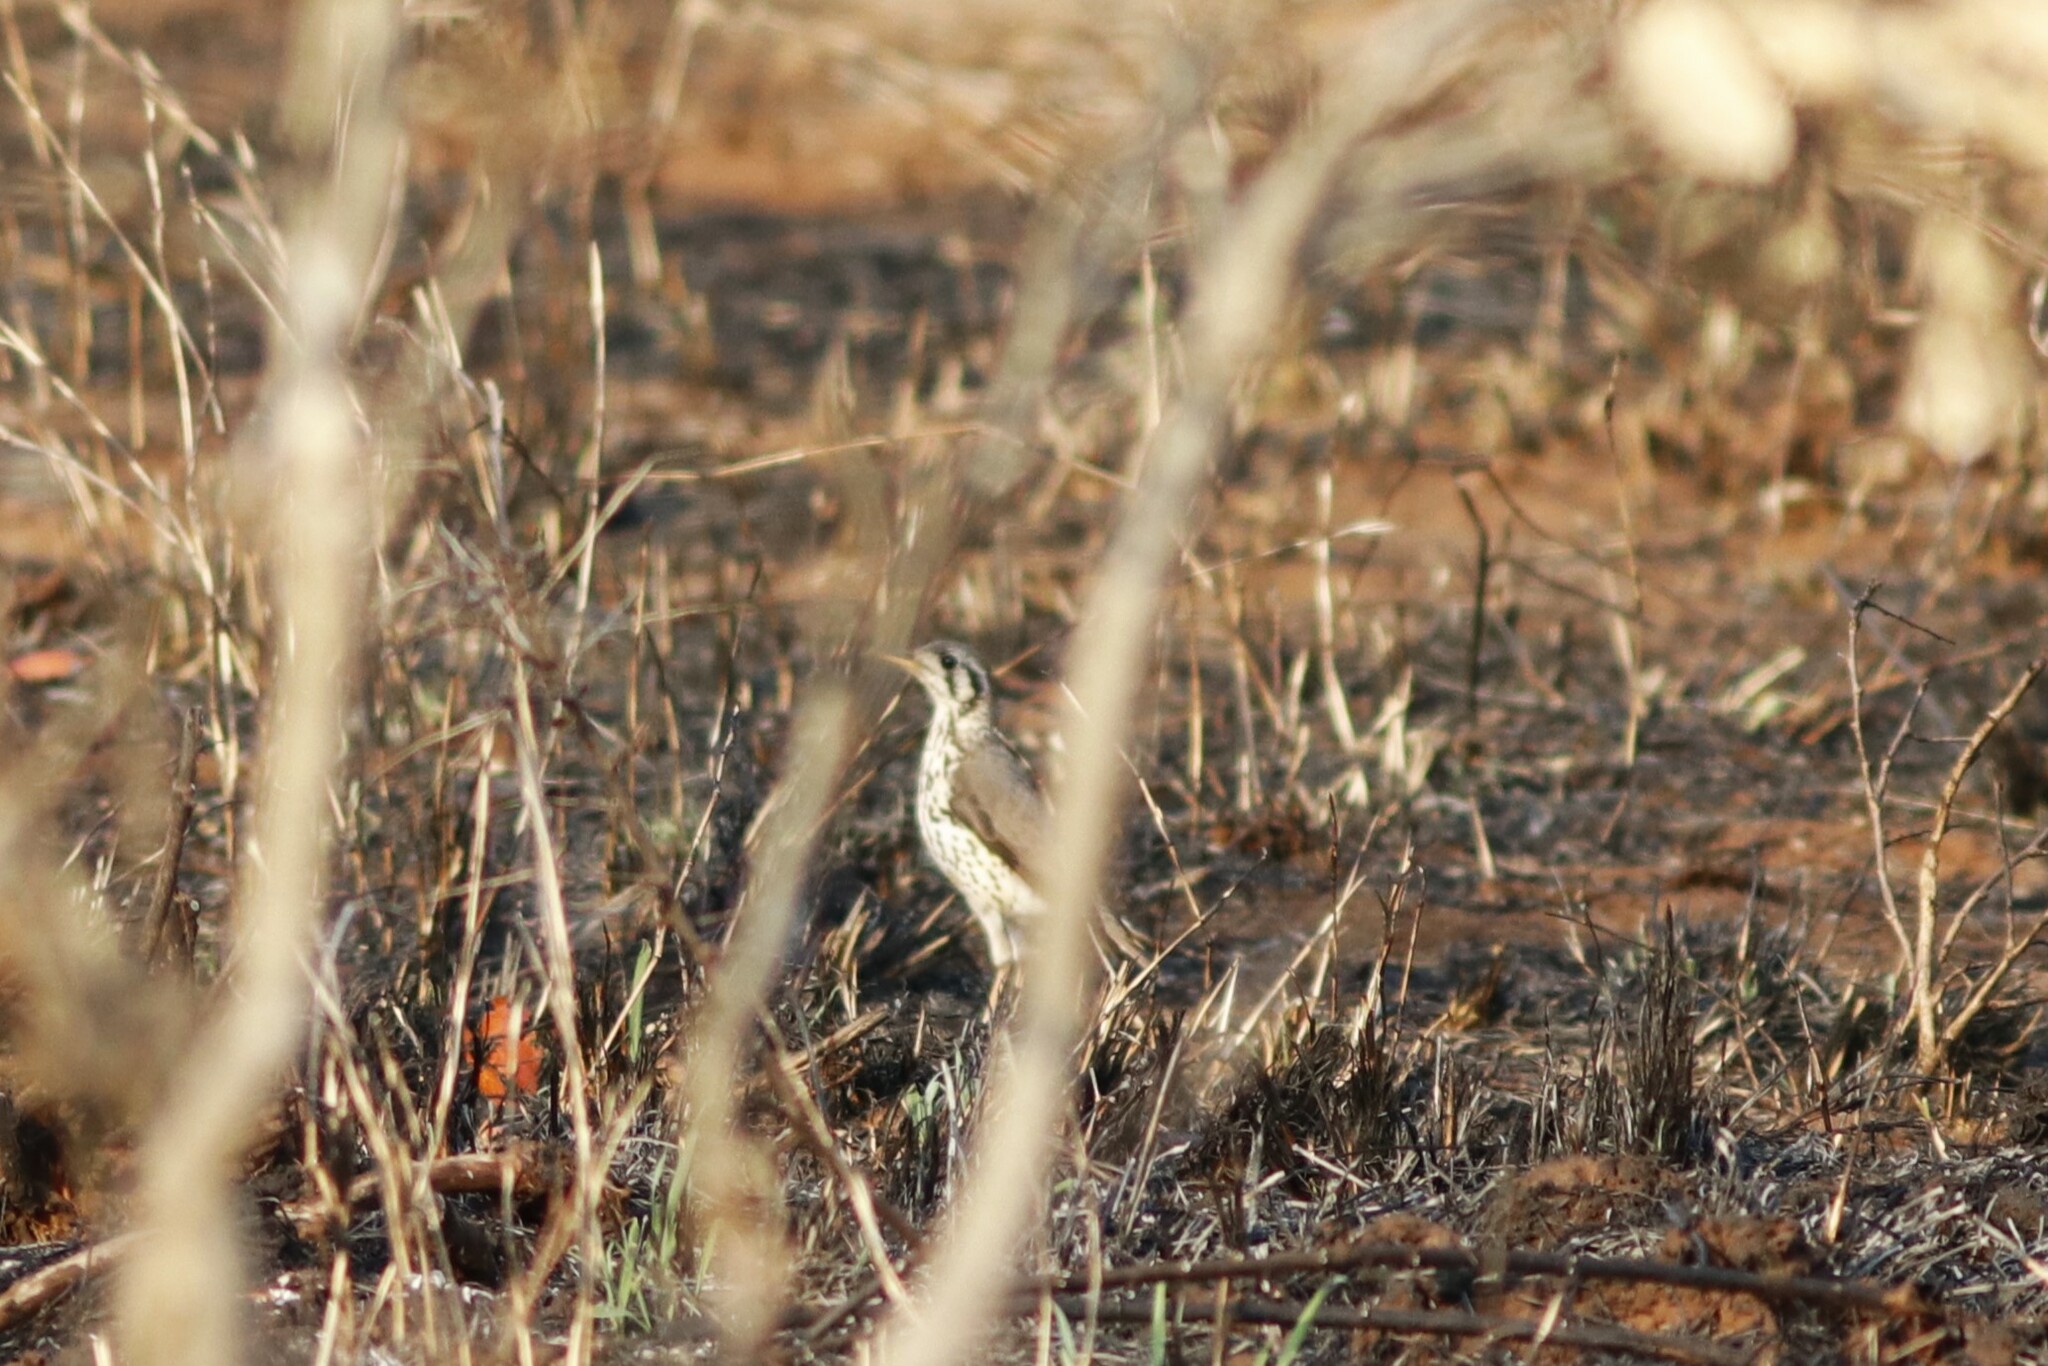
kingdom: Animalia
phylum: Chordata
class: Aves
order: Passeriformes
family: Turdidae
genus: Psophocichla
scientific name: Psophocichla litsitsirupa
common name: Groundscraper thrush
